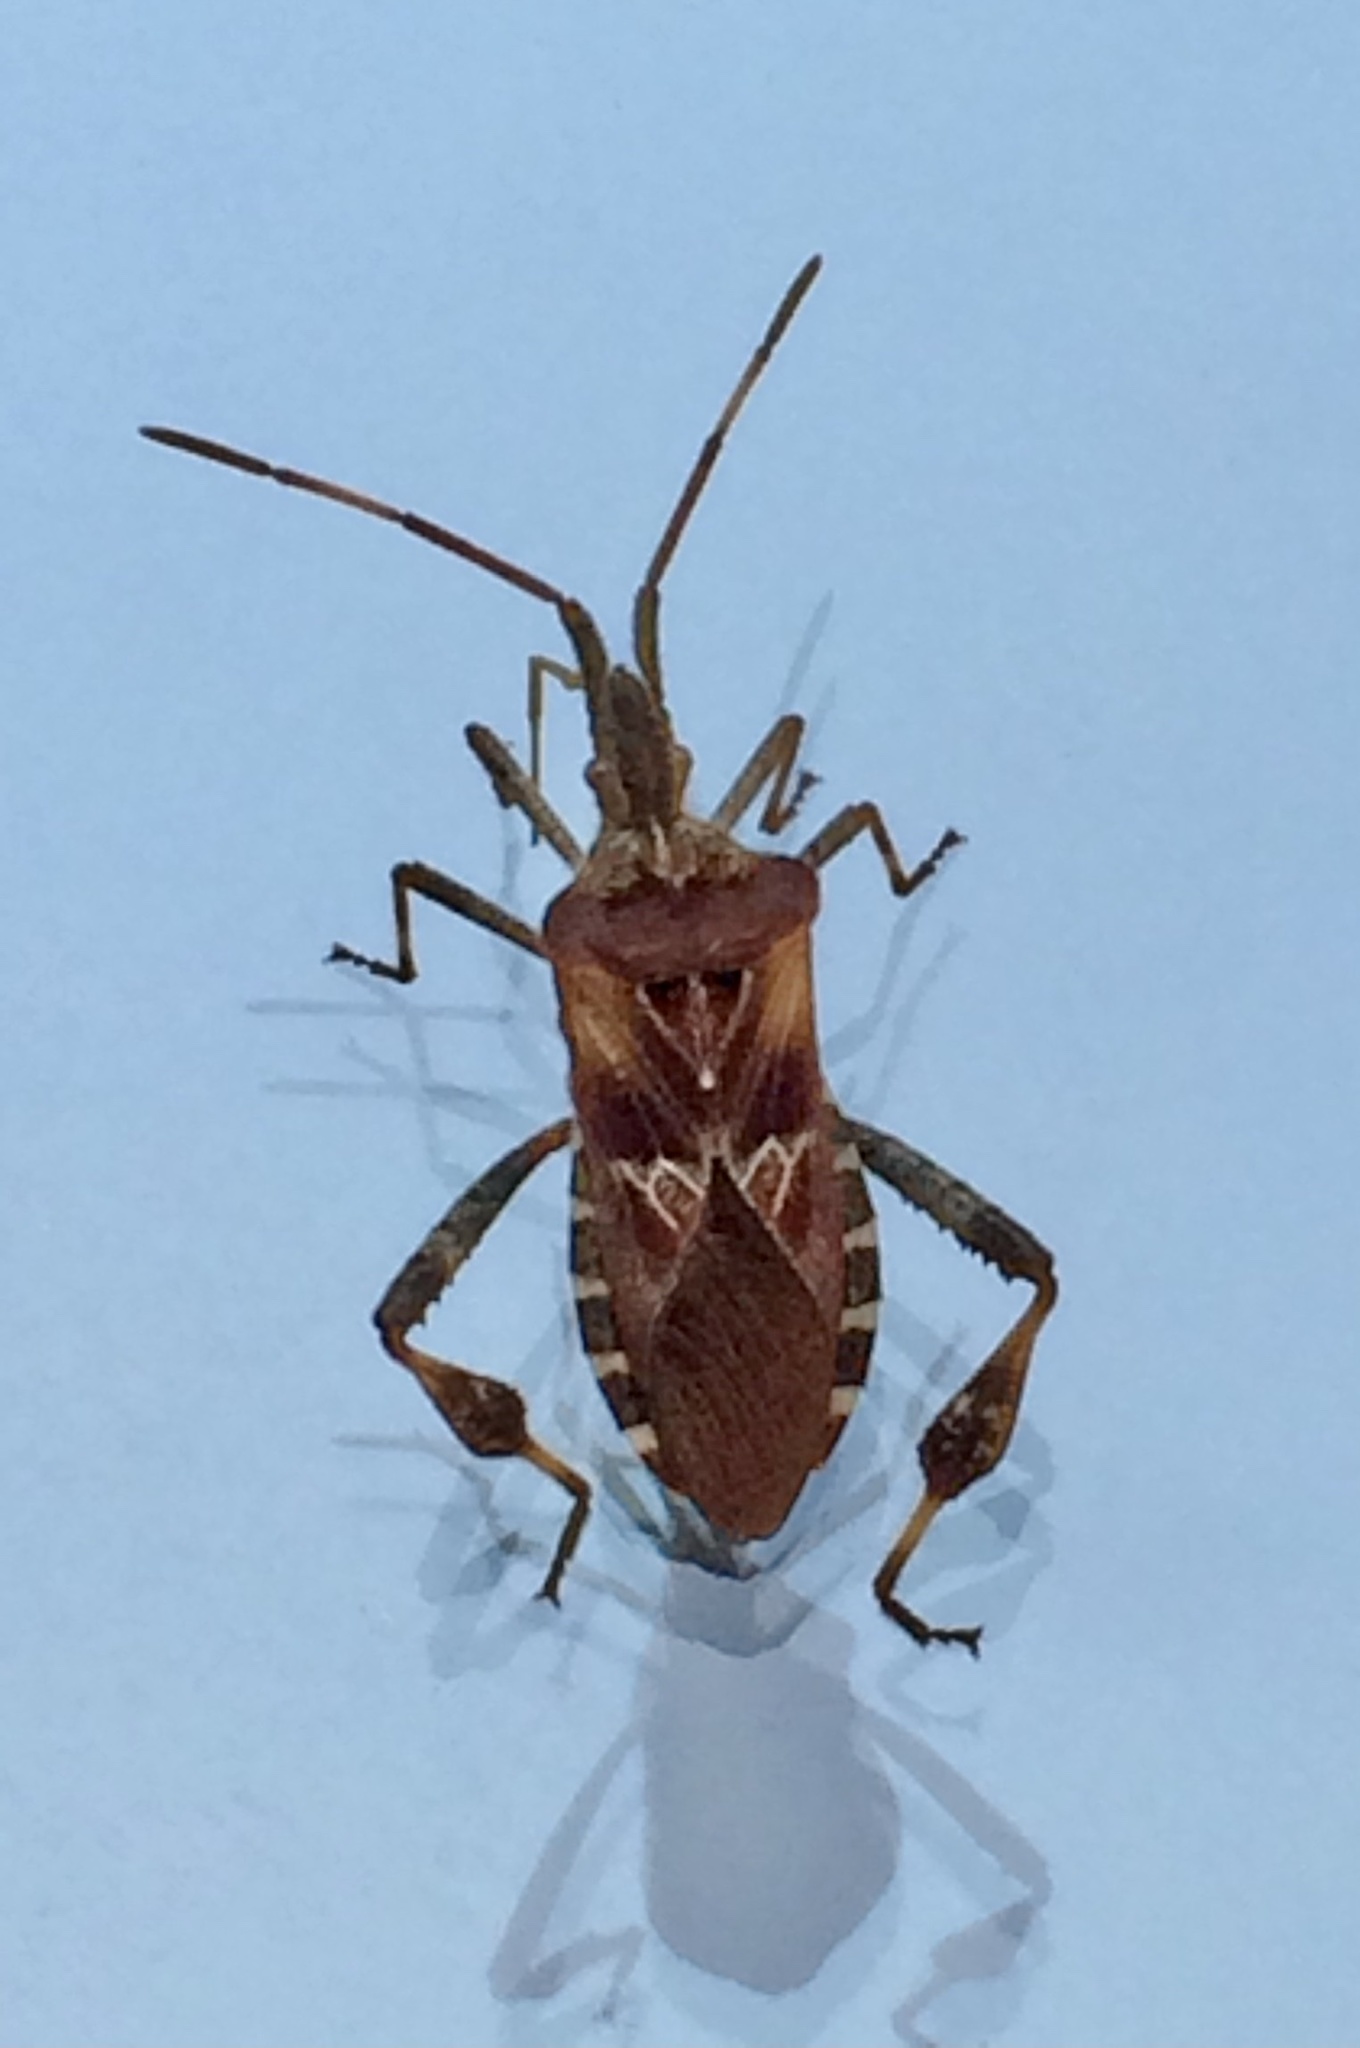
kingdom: Animalia
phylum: Arthropoda
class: Insecta
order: Hemiptera
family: Coreidae
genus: Leptoglossus
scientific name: Leptoglossus occidentalis
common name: Western conifer-seed bug
